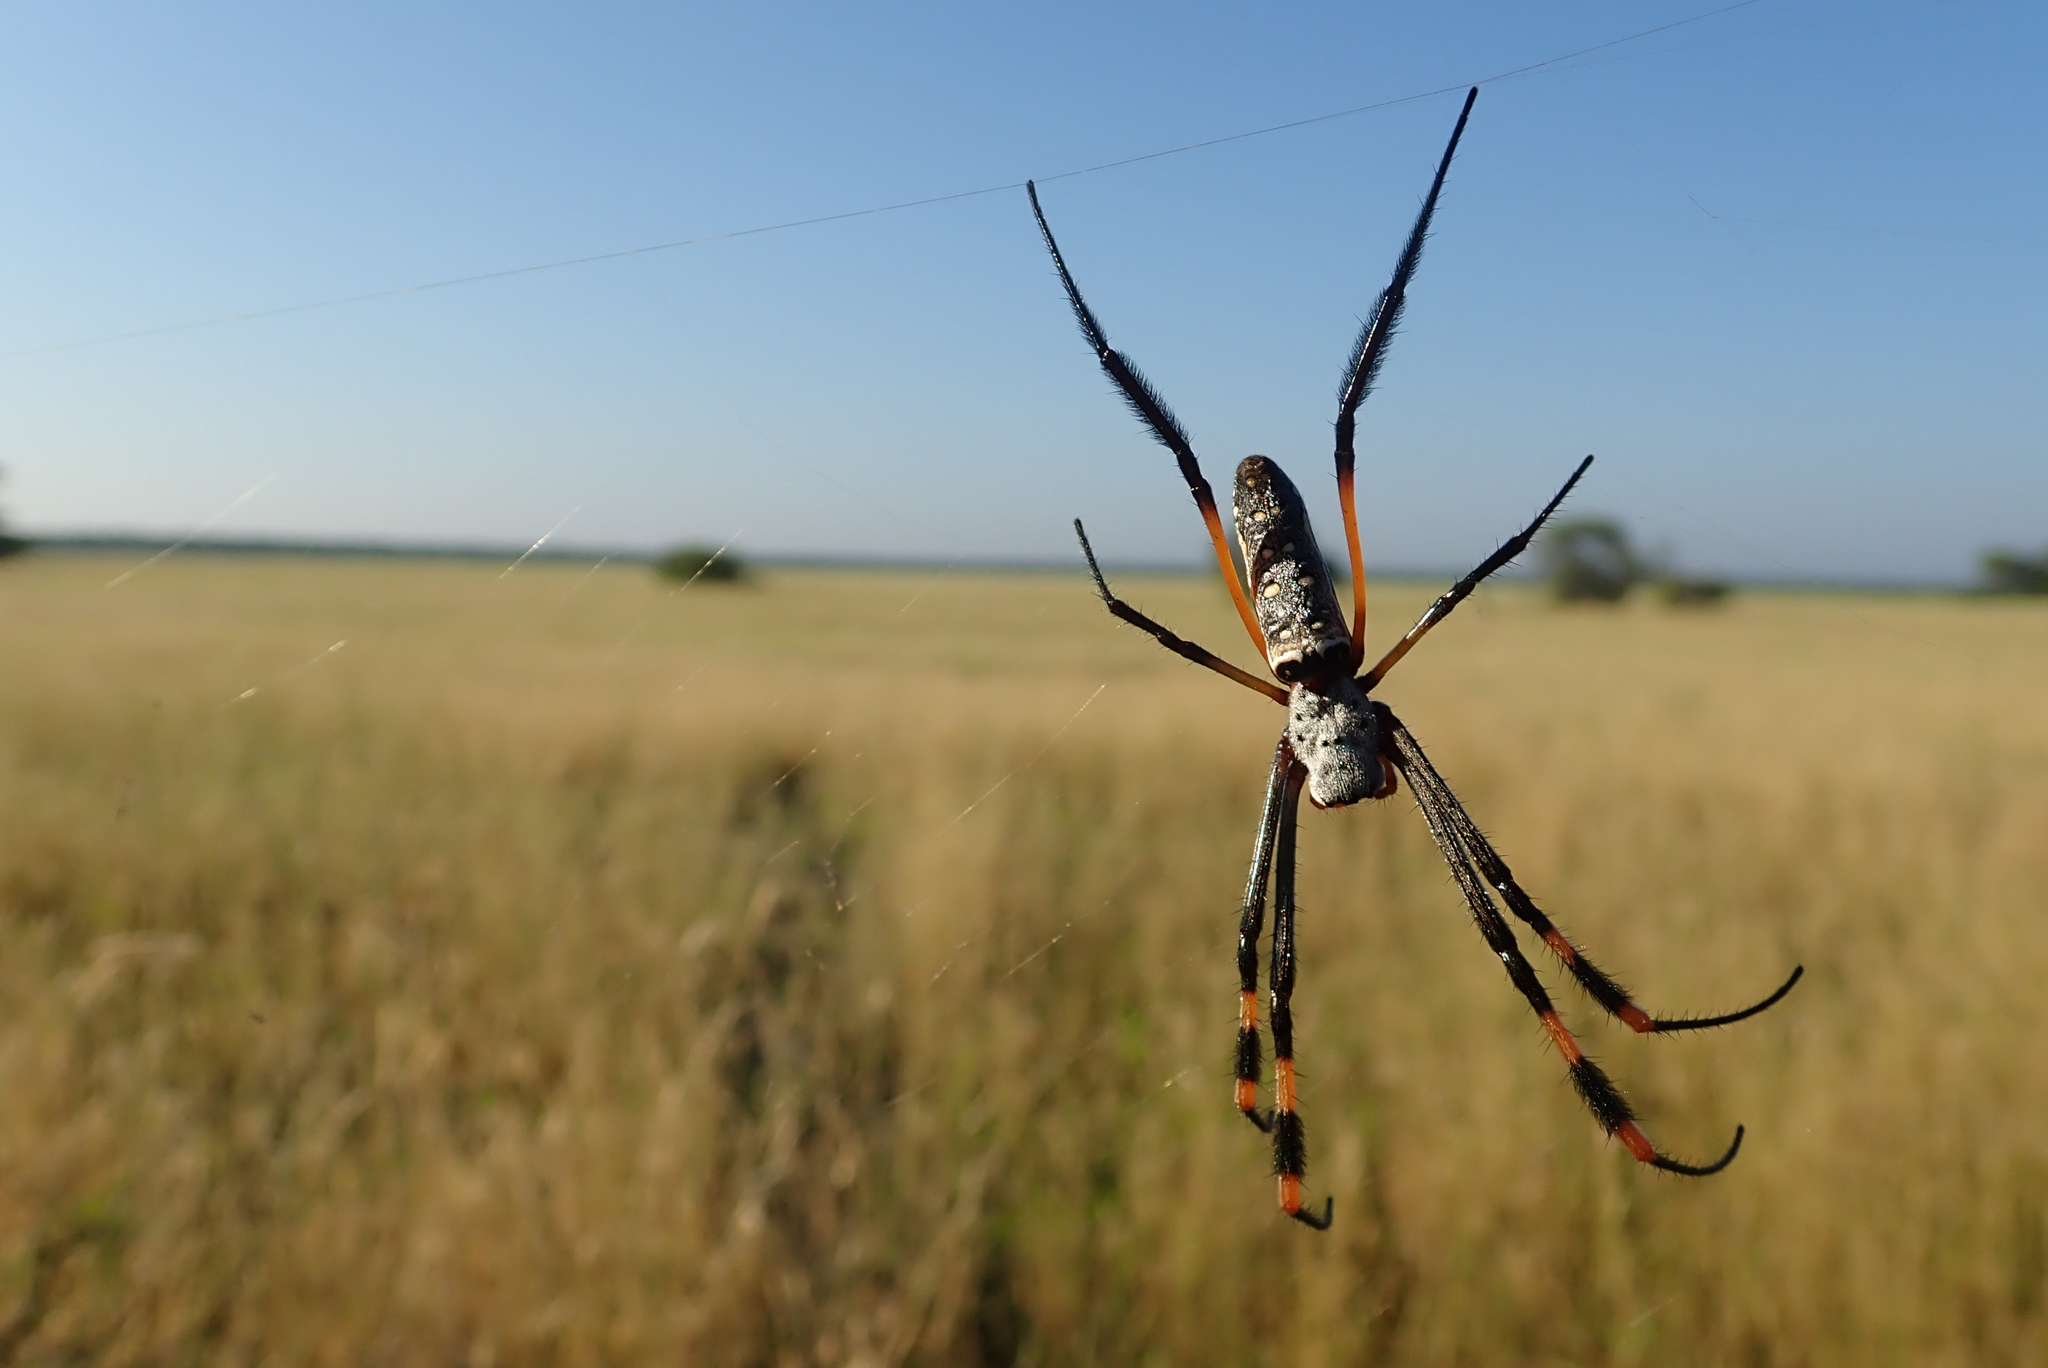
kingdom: Animalia
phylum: Arthropoda
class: Arachnida
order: Araneae
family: Araneidae
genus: Trichonephila
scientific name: Trichonephila senegalensis
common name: Banded golden orb weaver
